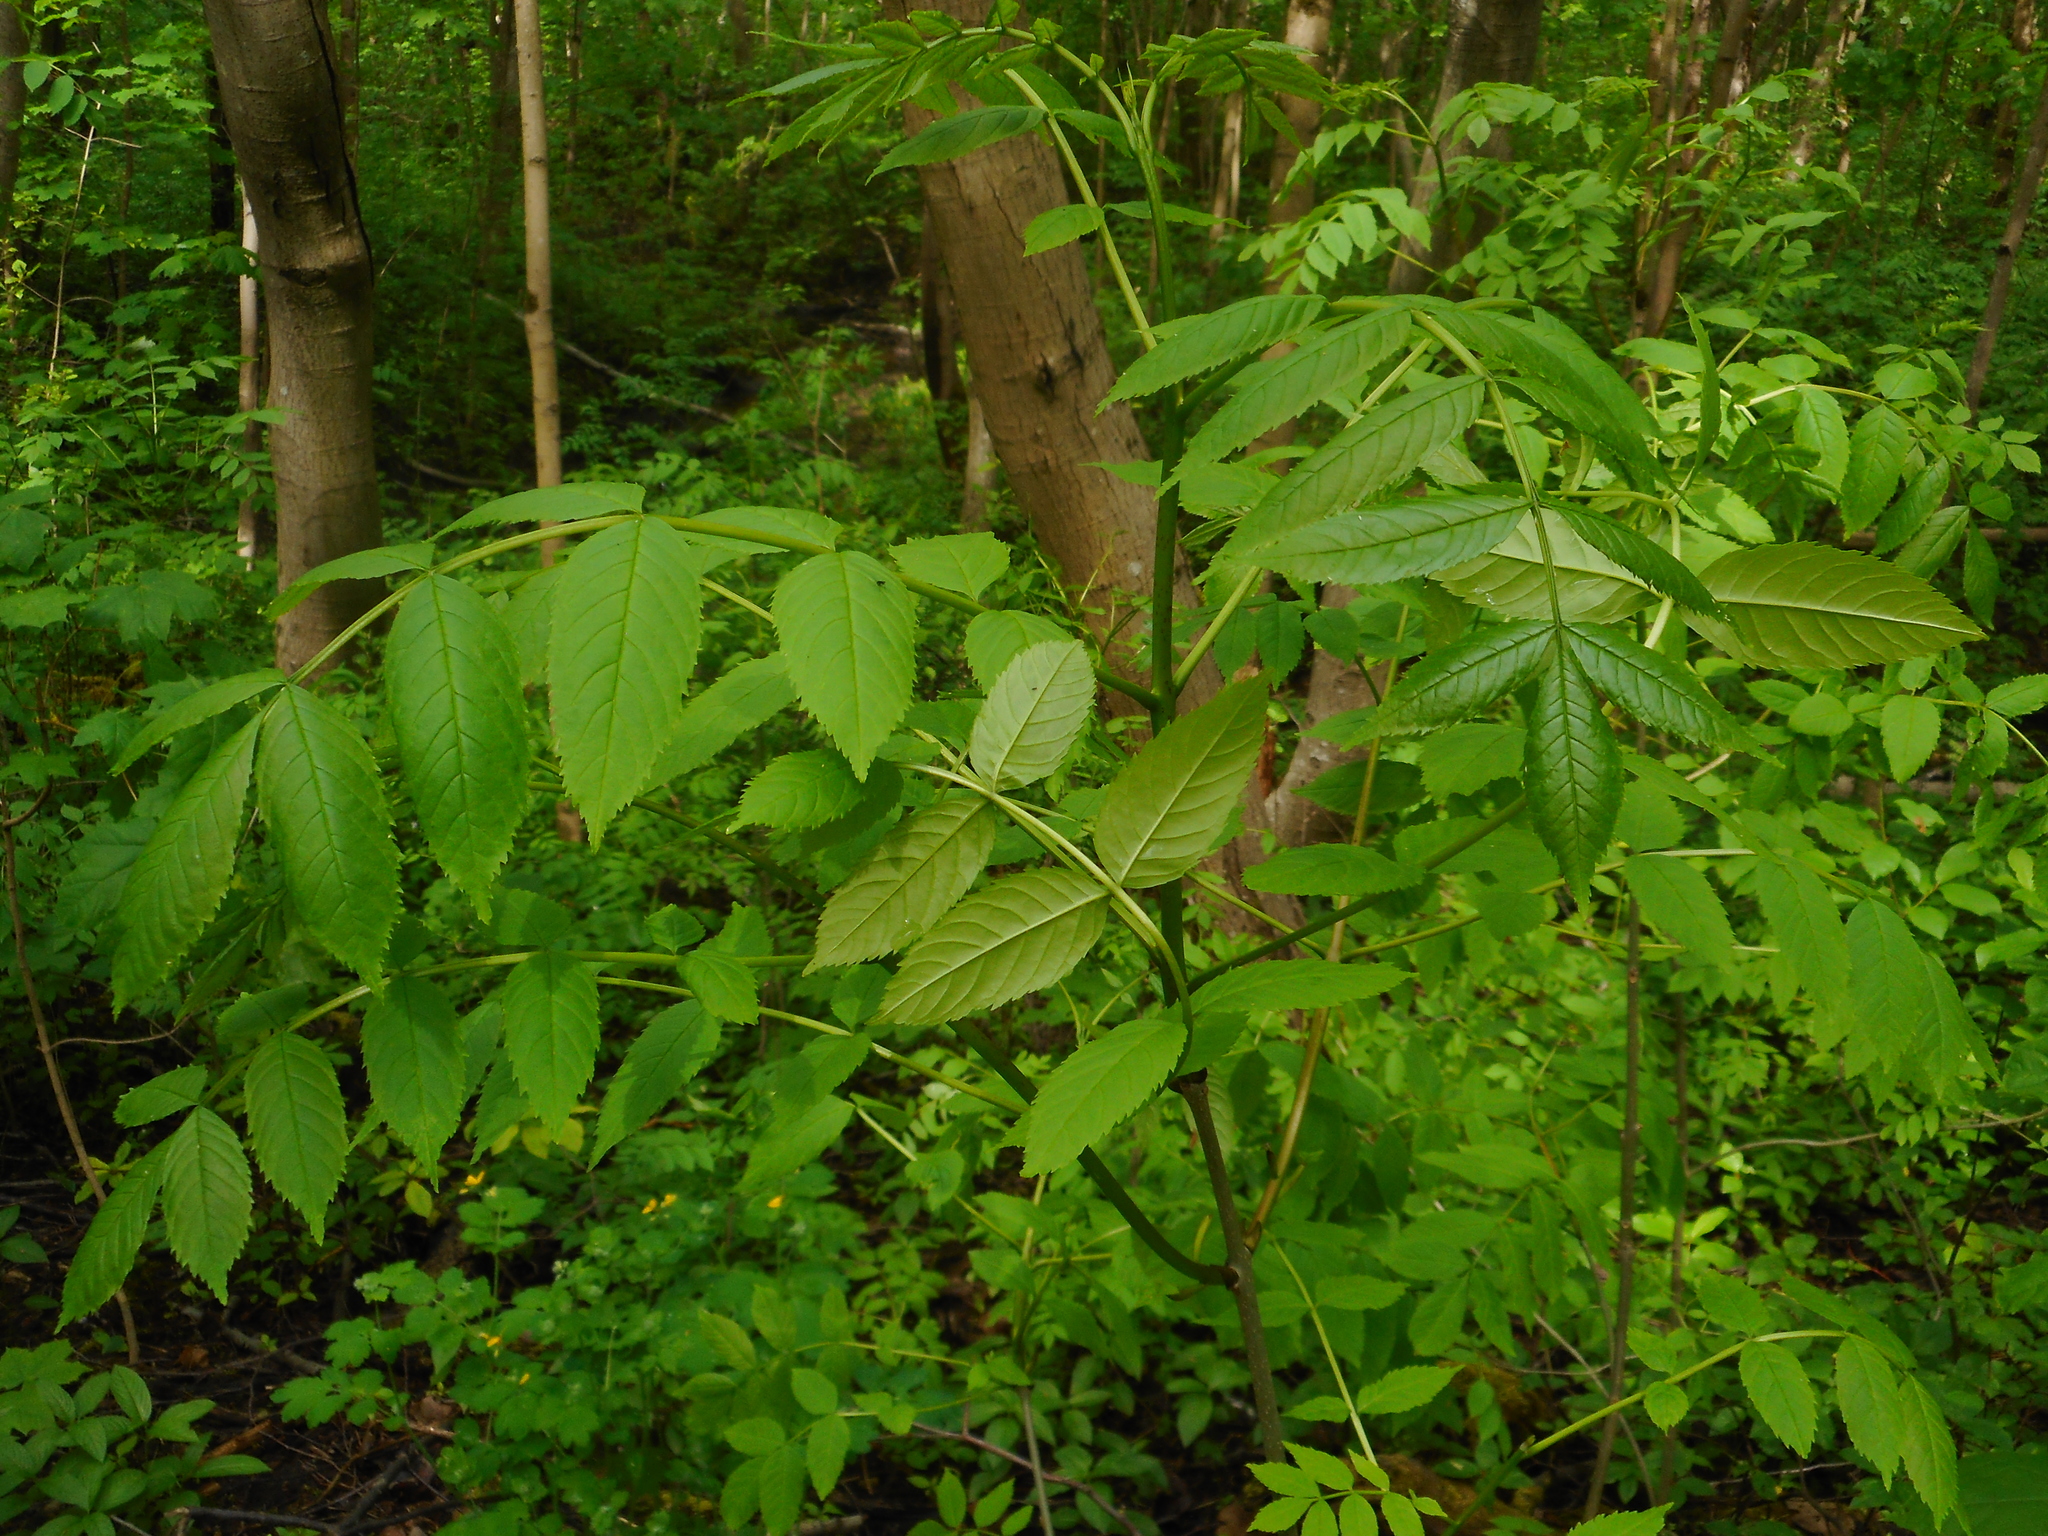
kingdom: Plantae
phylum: Tracheophyta
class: Magnoliopsida
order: Lamiales
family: Oleaceae
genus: Fraxinus
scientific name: Fraxinus excelsior
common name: European ash
